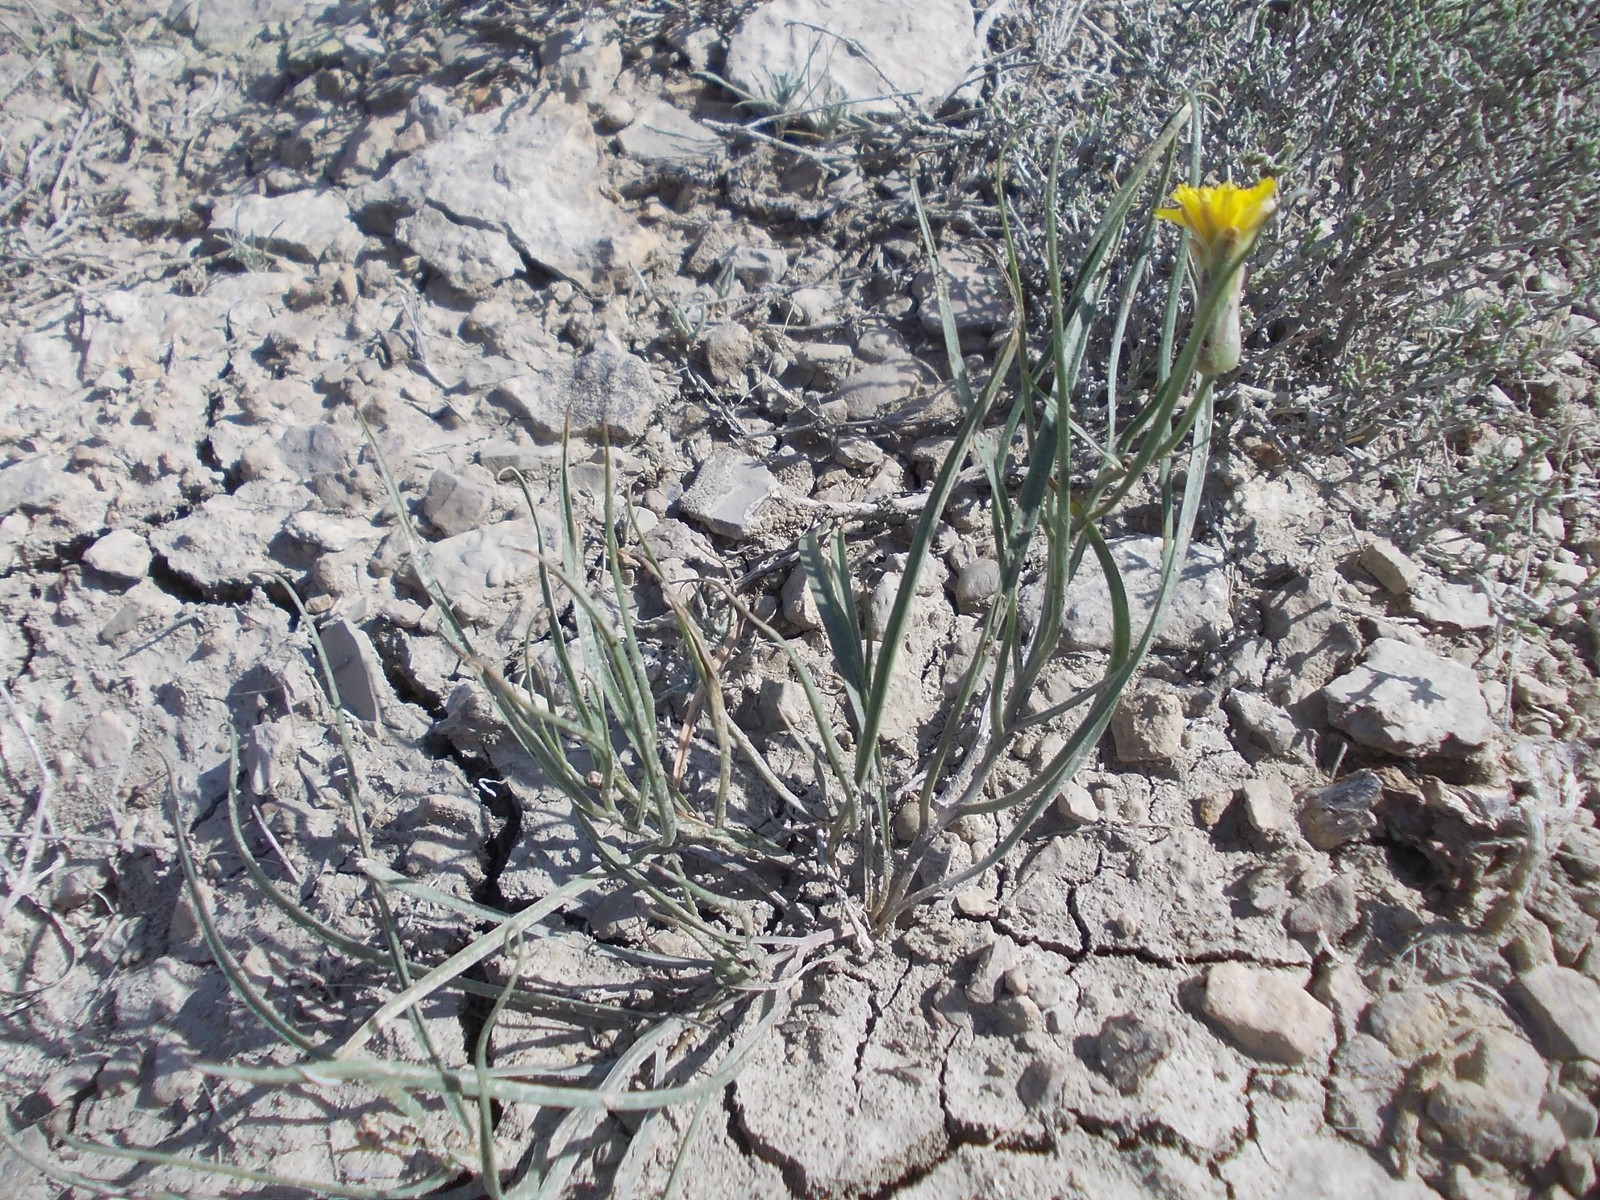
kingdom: Plantae
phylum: Tracheophyta
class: Magnoliopsida
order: Asterales
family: Asteraceae
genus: Takhtajaniantha
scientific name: Takhtajaniantha pusilla
